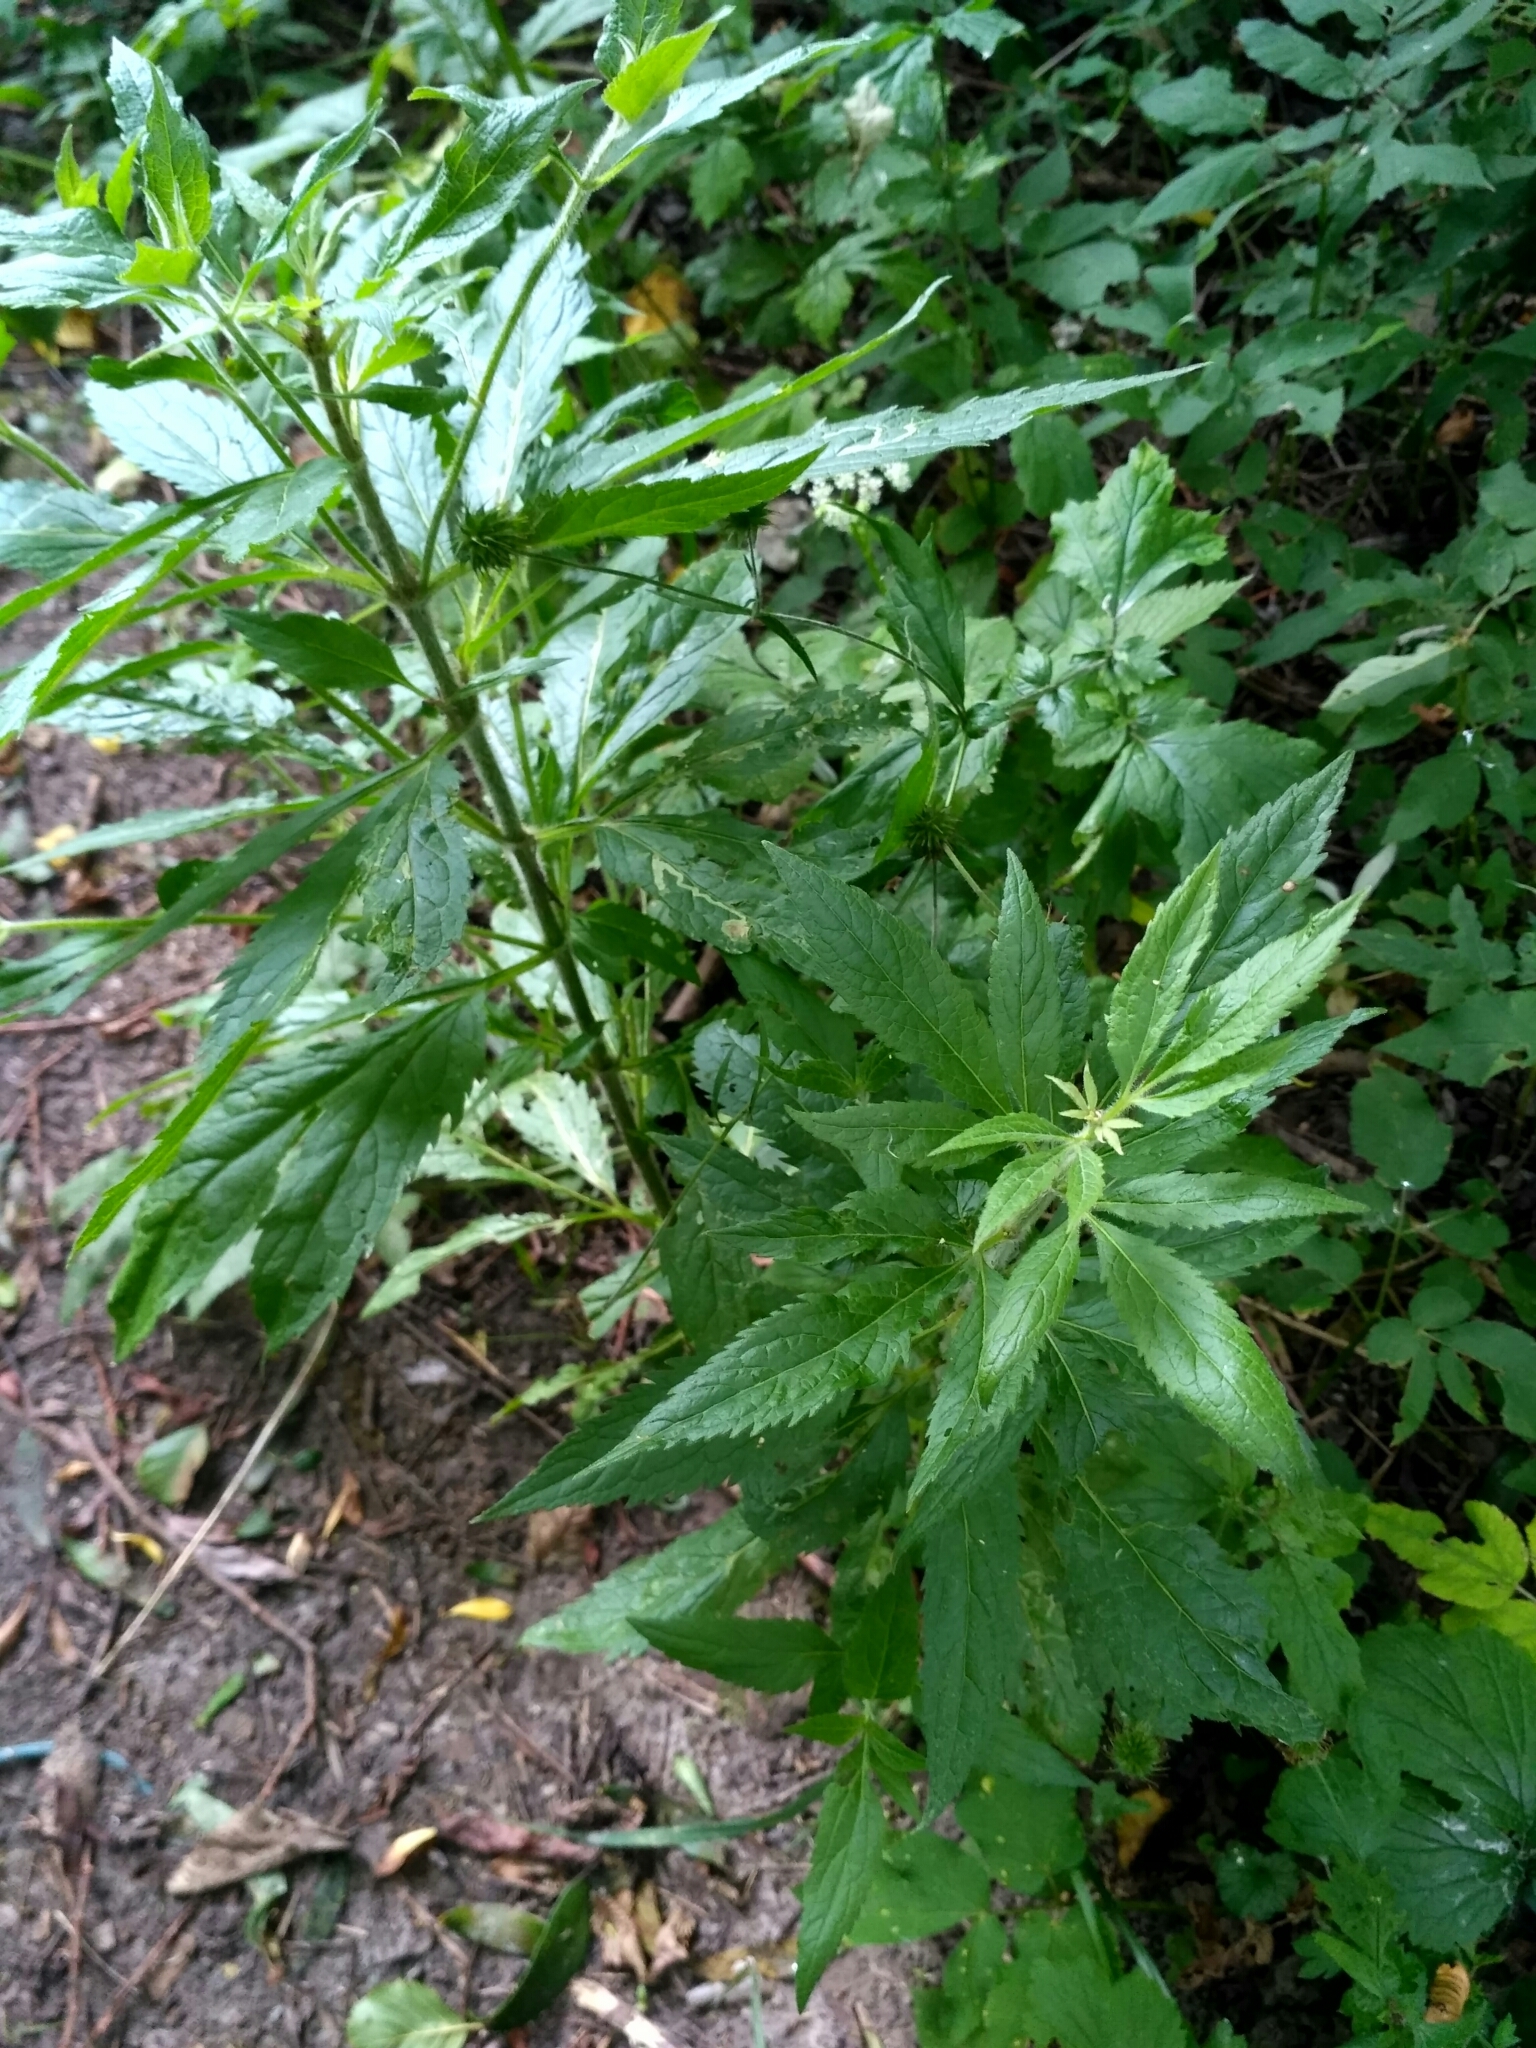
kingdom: Plantae
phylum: Tracheophyta
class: Magnoliopsida
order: Asterales
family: Asteraceae
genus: Eupatorium
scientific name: Eupatorium cannabinum
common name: Hemp-agrimony
